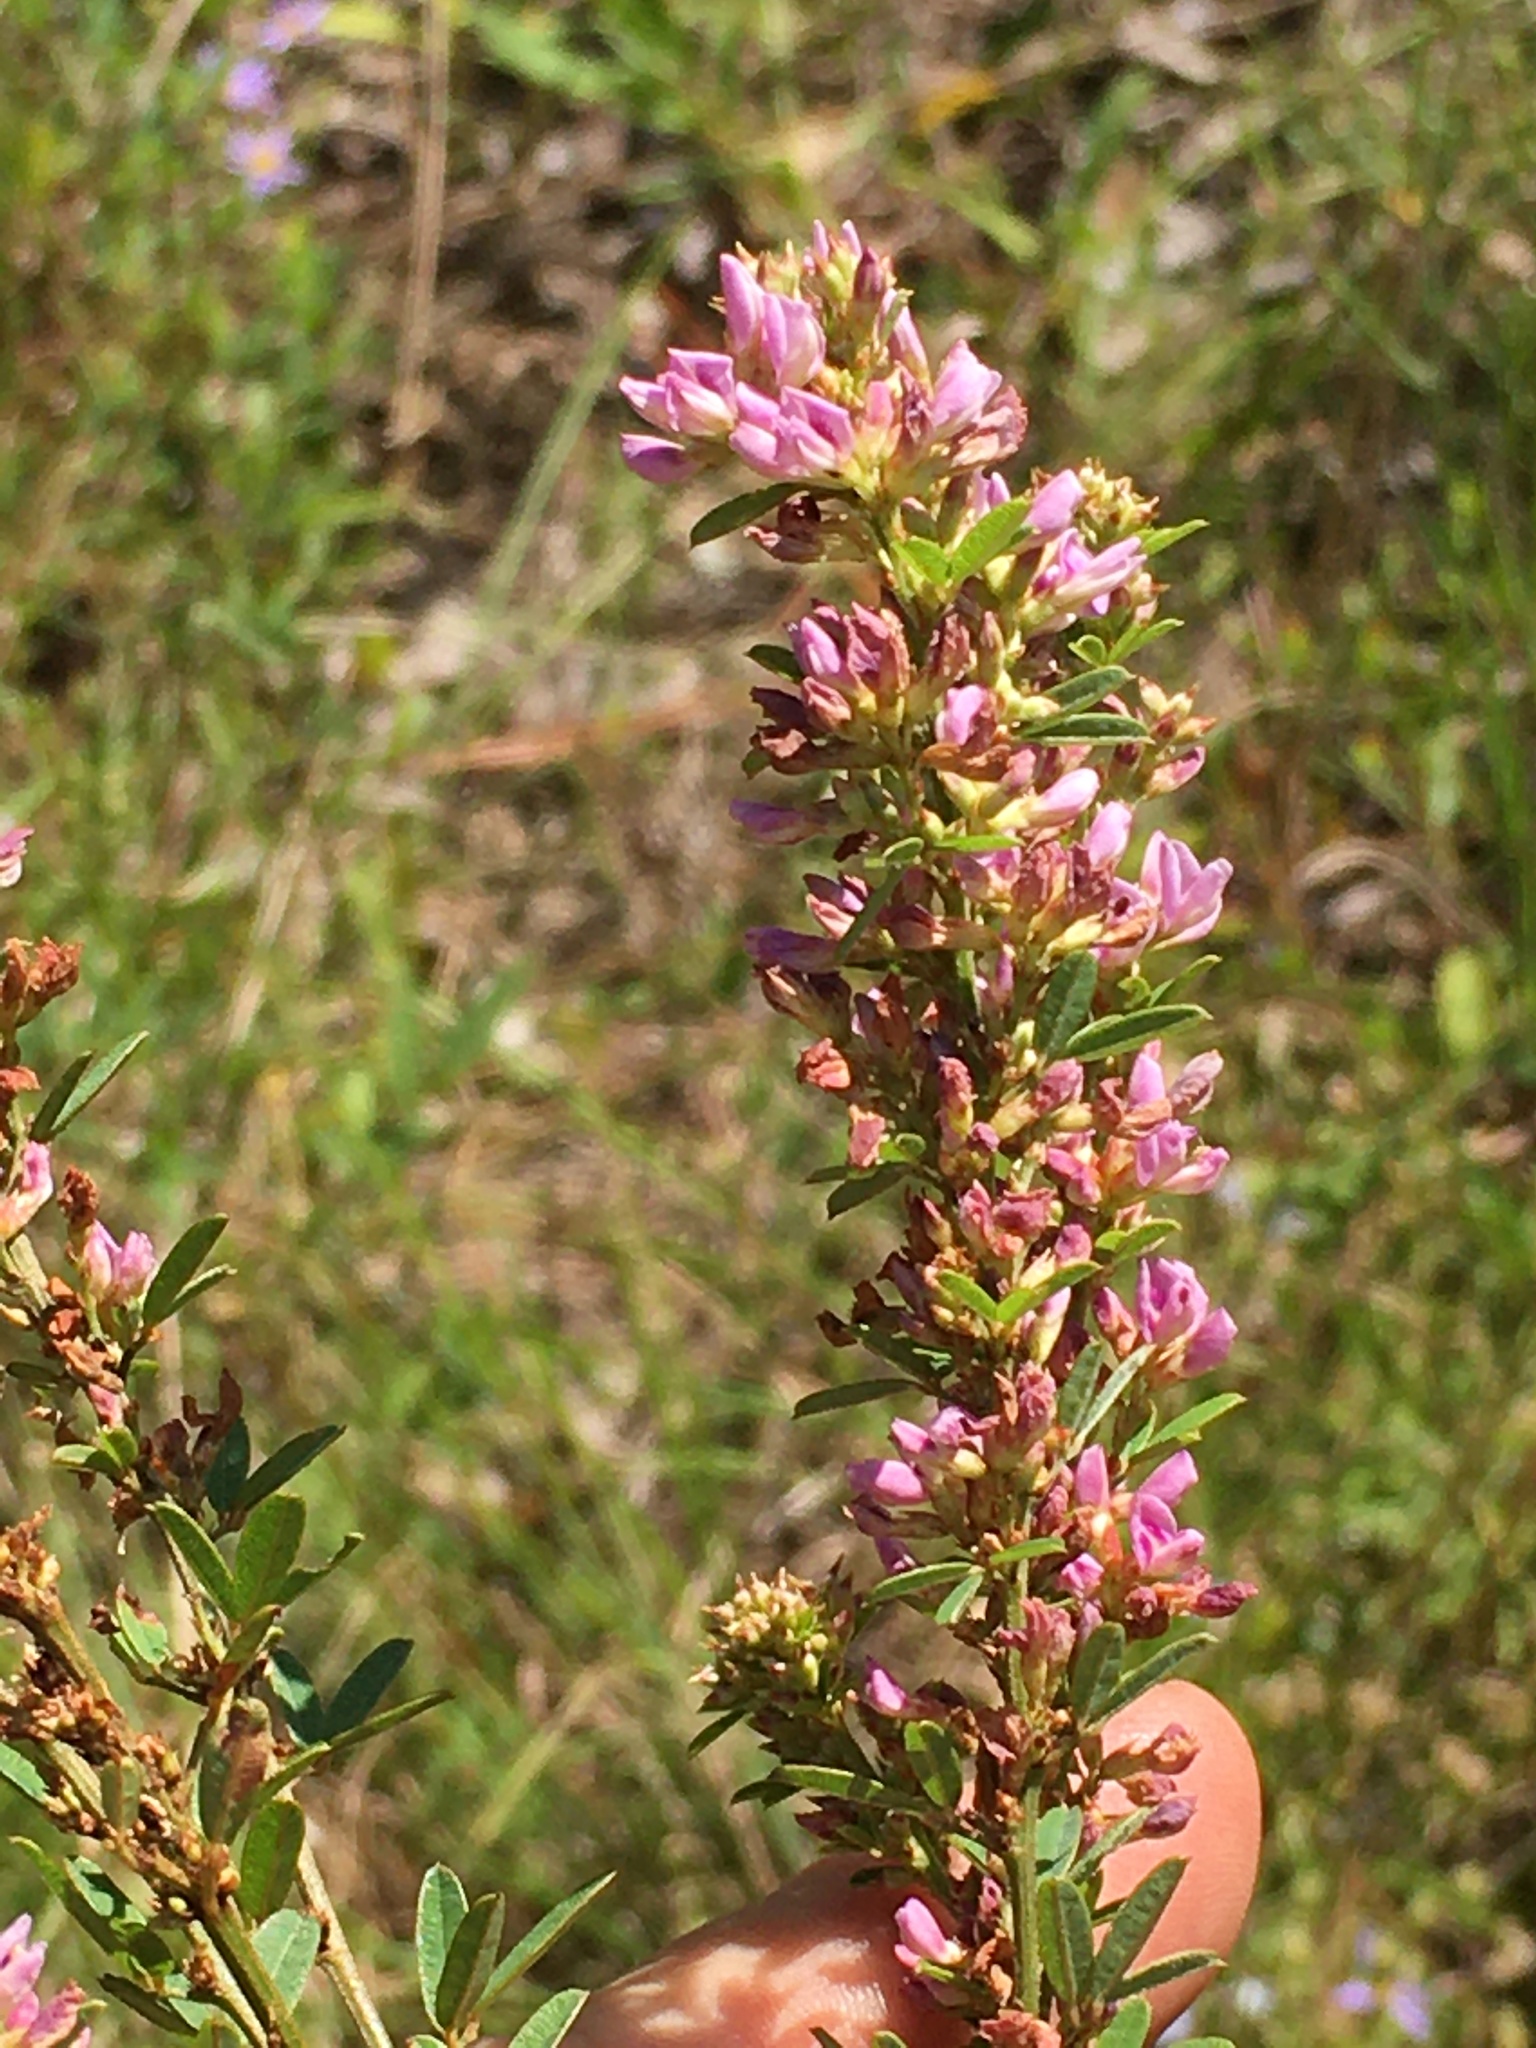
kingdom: Plantae
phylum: Tracheophyta
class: Magnoliopsida
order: Fabales
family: Fabaceae
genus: Lespedeza
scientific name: Lespedeza virginica
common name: Slender bush-clover
